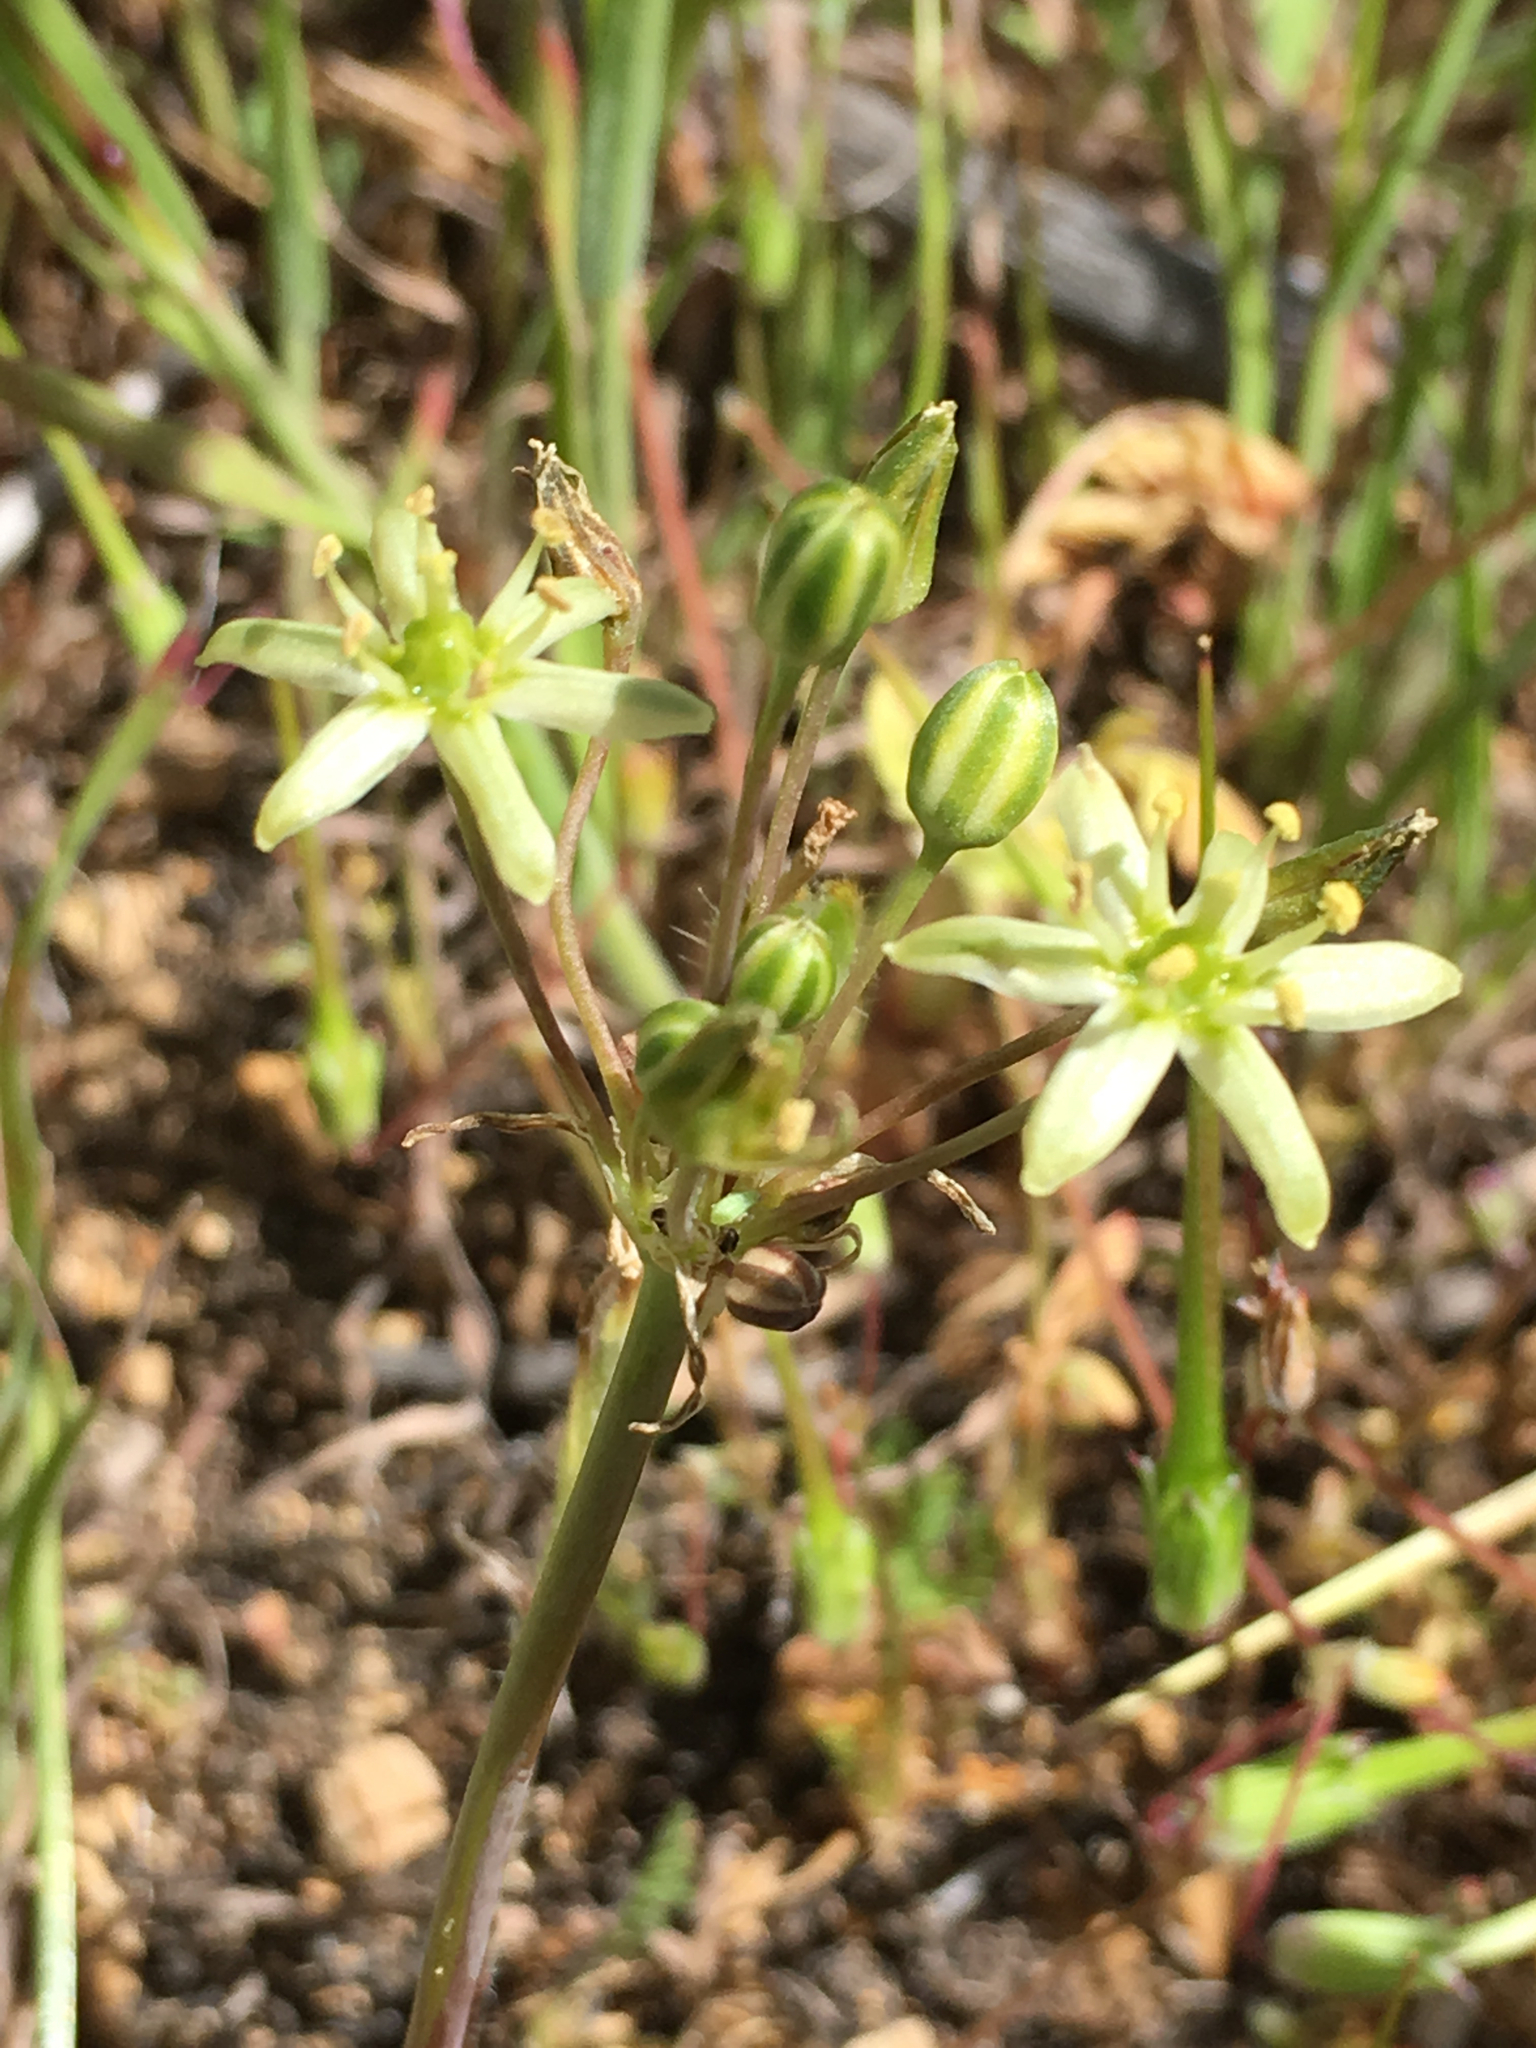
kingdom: Plantae
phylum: Tracheophyta
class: Liliopsida
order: Asparagales
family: Asparagaceae
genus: Muilla
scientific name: Muilla maritima
